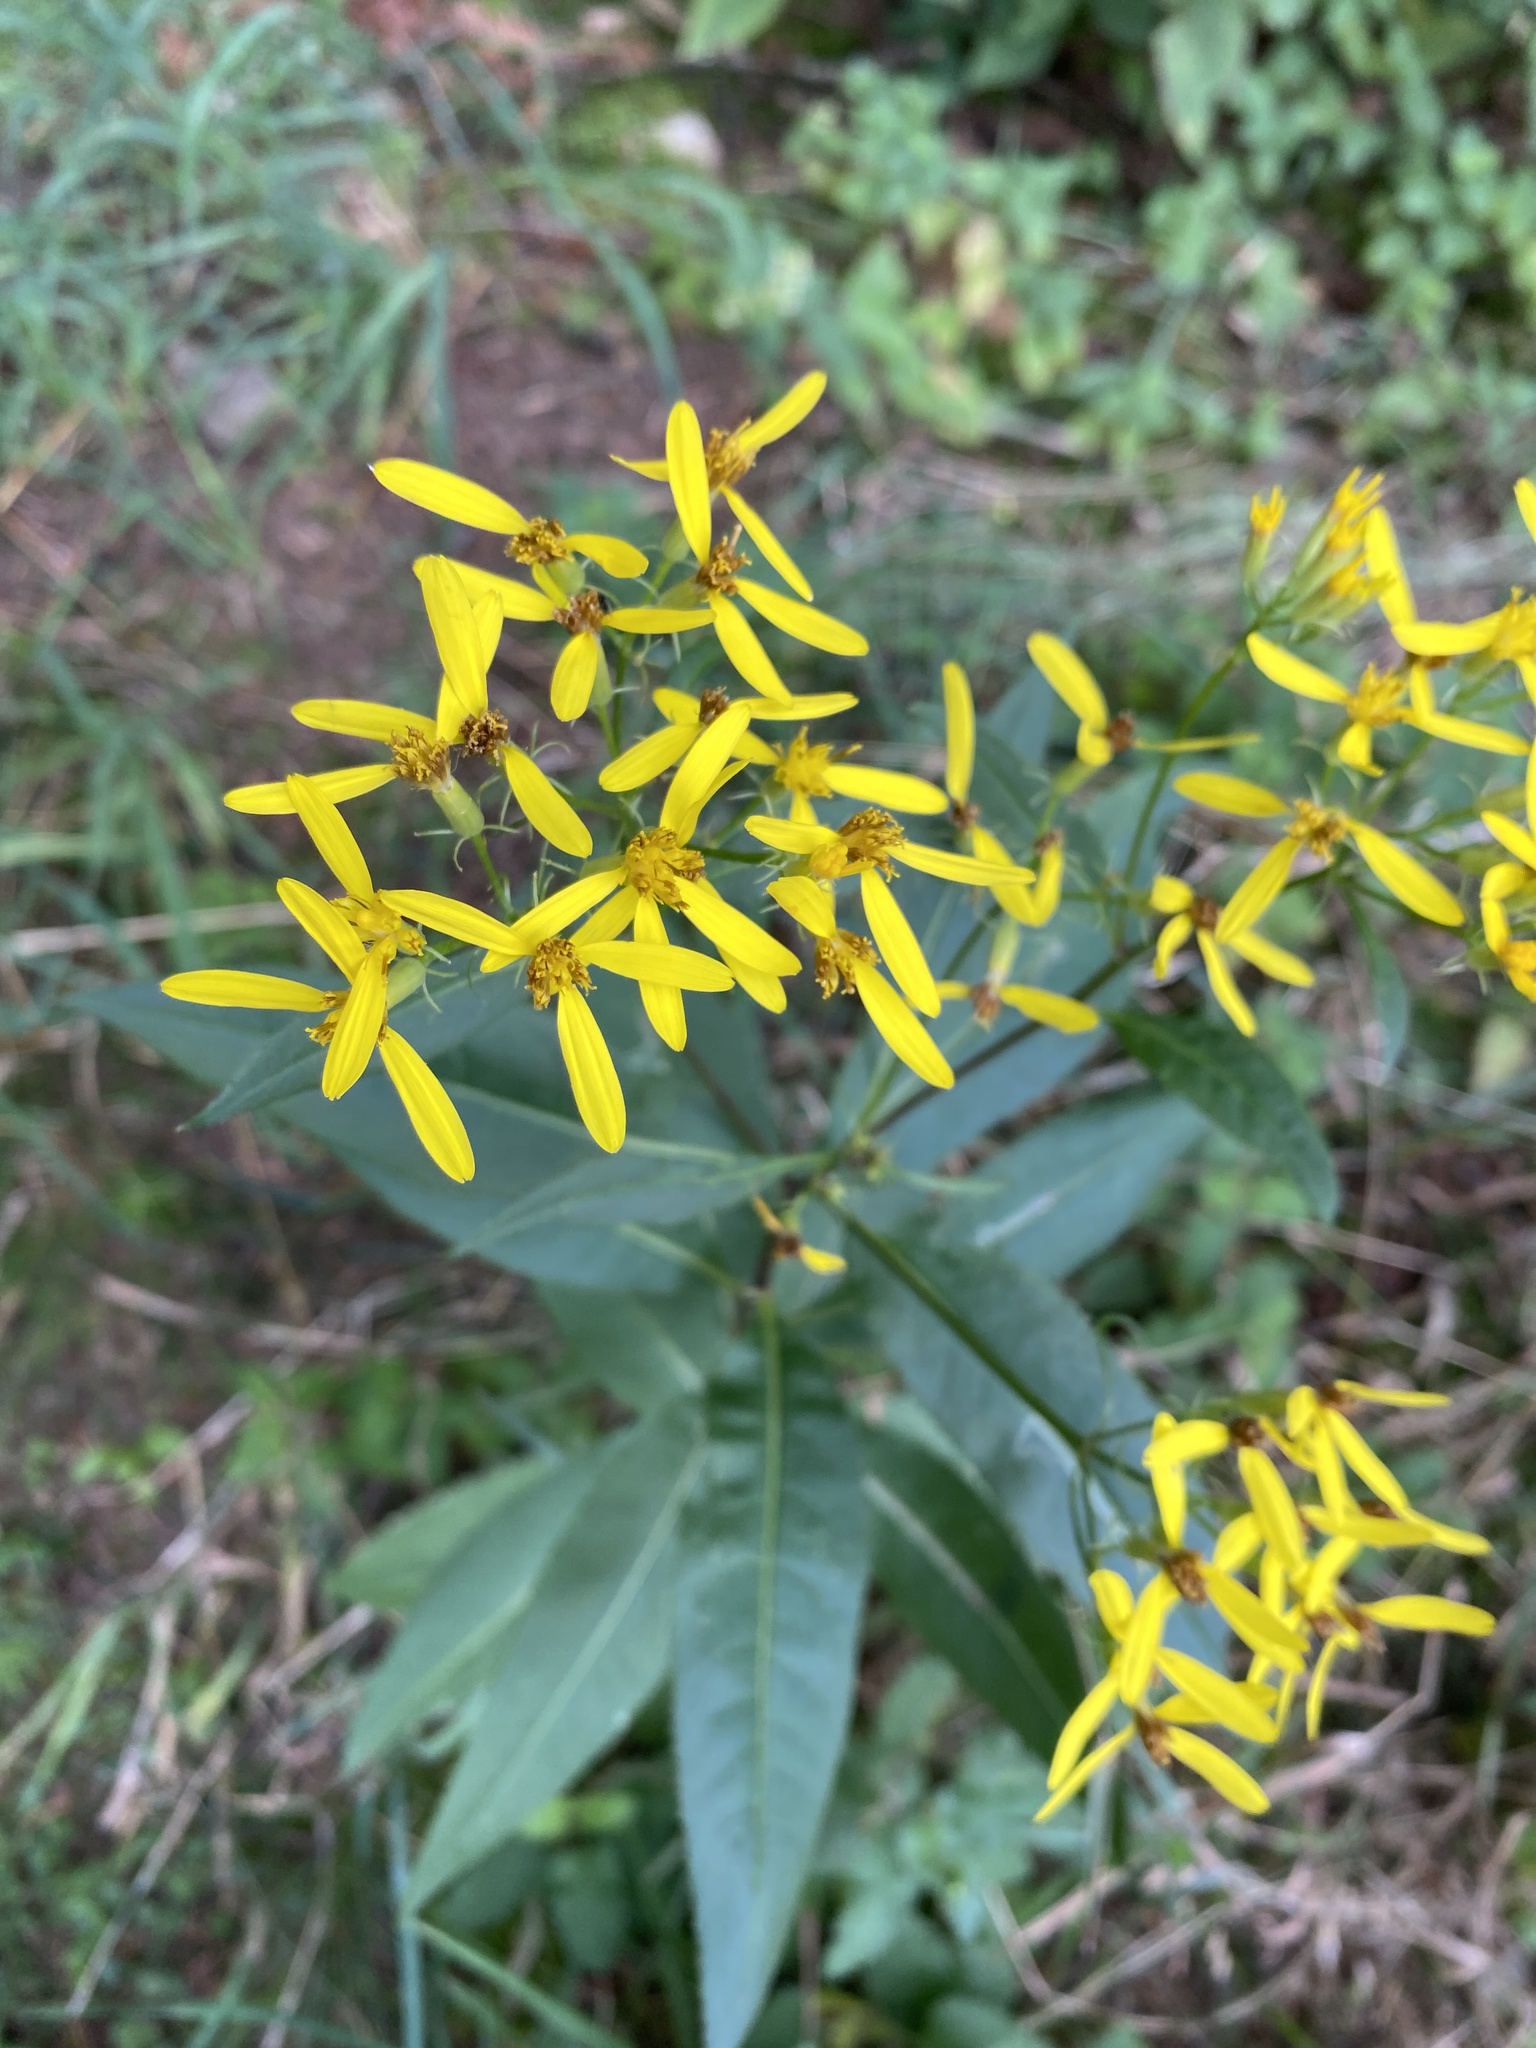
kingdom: Plantae
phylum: Tracheophyta
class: Magnoliopsida
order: Asterales
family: Asteraceae
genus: Senecio
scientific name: Senecio ovatus
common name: Wood ragwort
